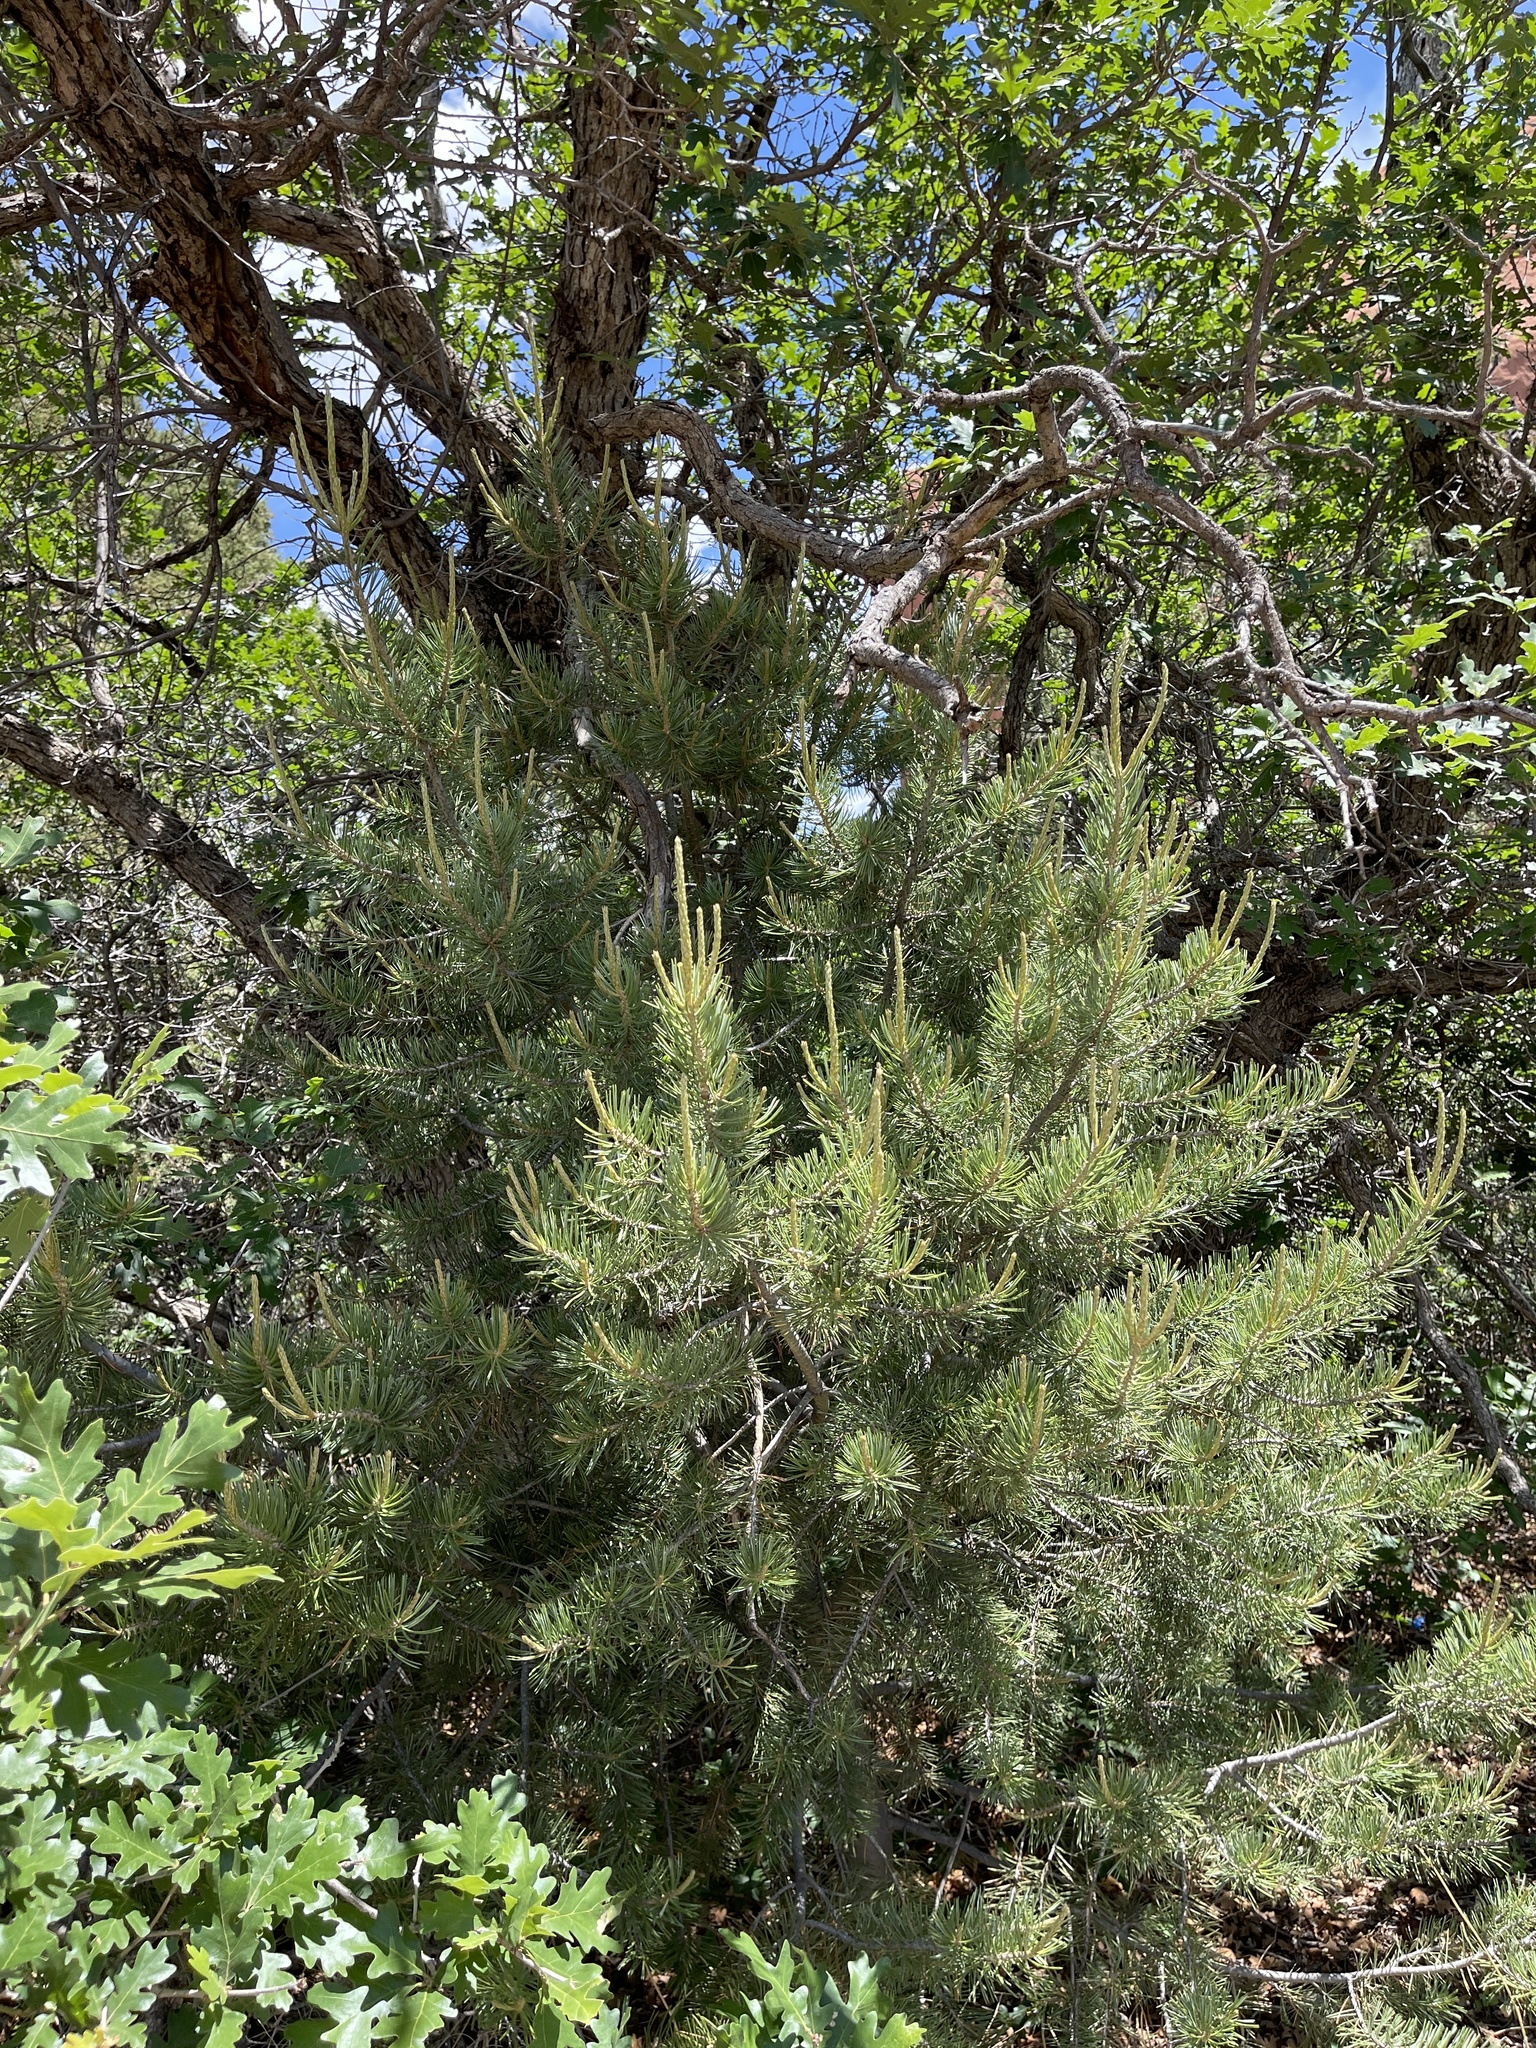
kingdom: Plantae
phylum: Tracheophyta
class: Pinopsida
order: Pinales
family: Pinaceae
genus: Pinus
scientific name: Pinus edulis
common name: Colorado pinyon
